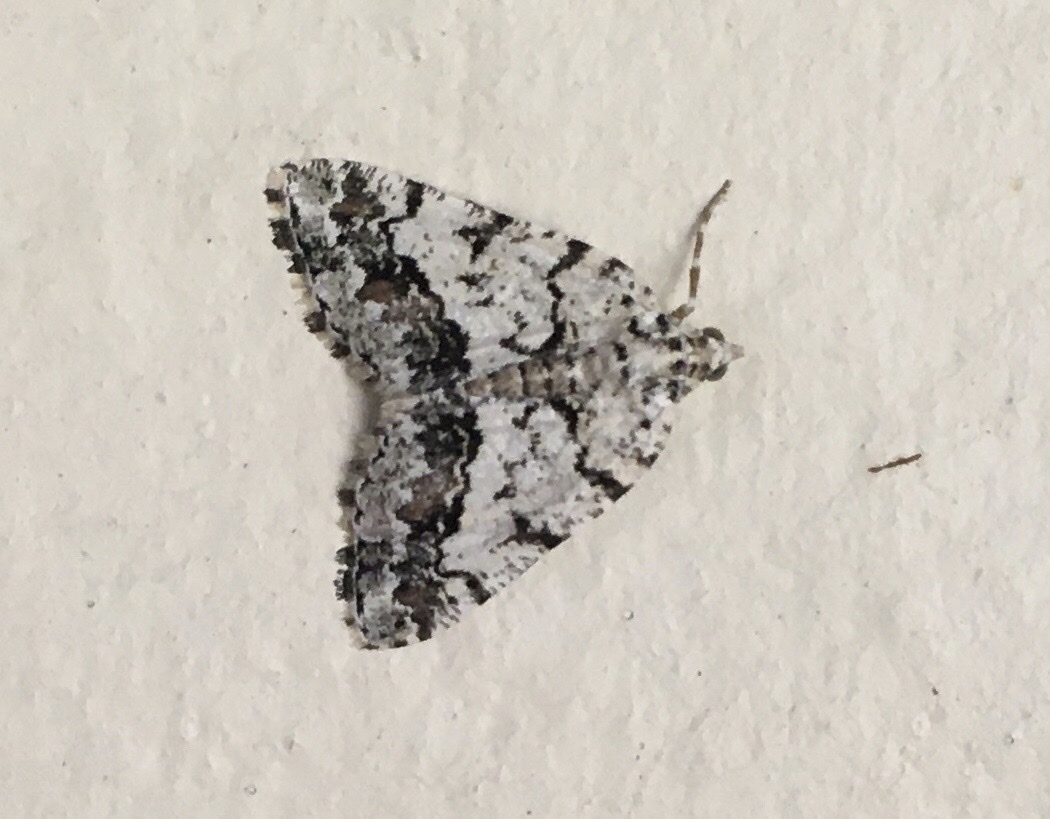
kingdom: Animalia
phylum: Arthropoda
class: Insecta
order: Lepidoptera
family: Geometridae
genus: Macaria
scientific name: Macaria graphidaria
